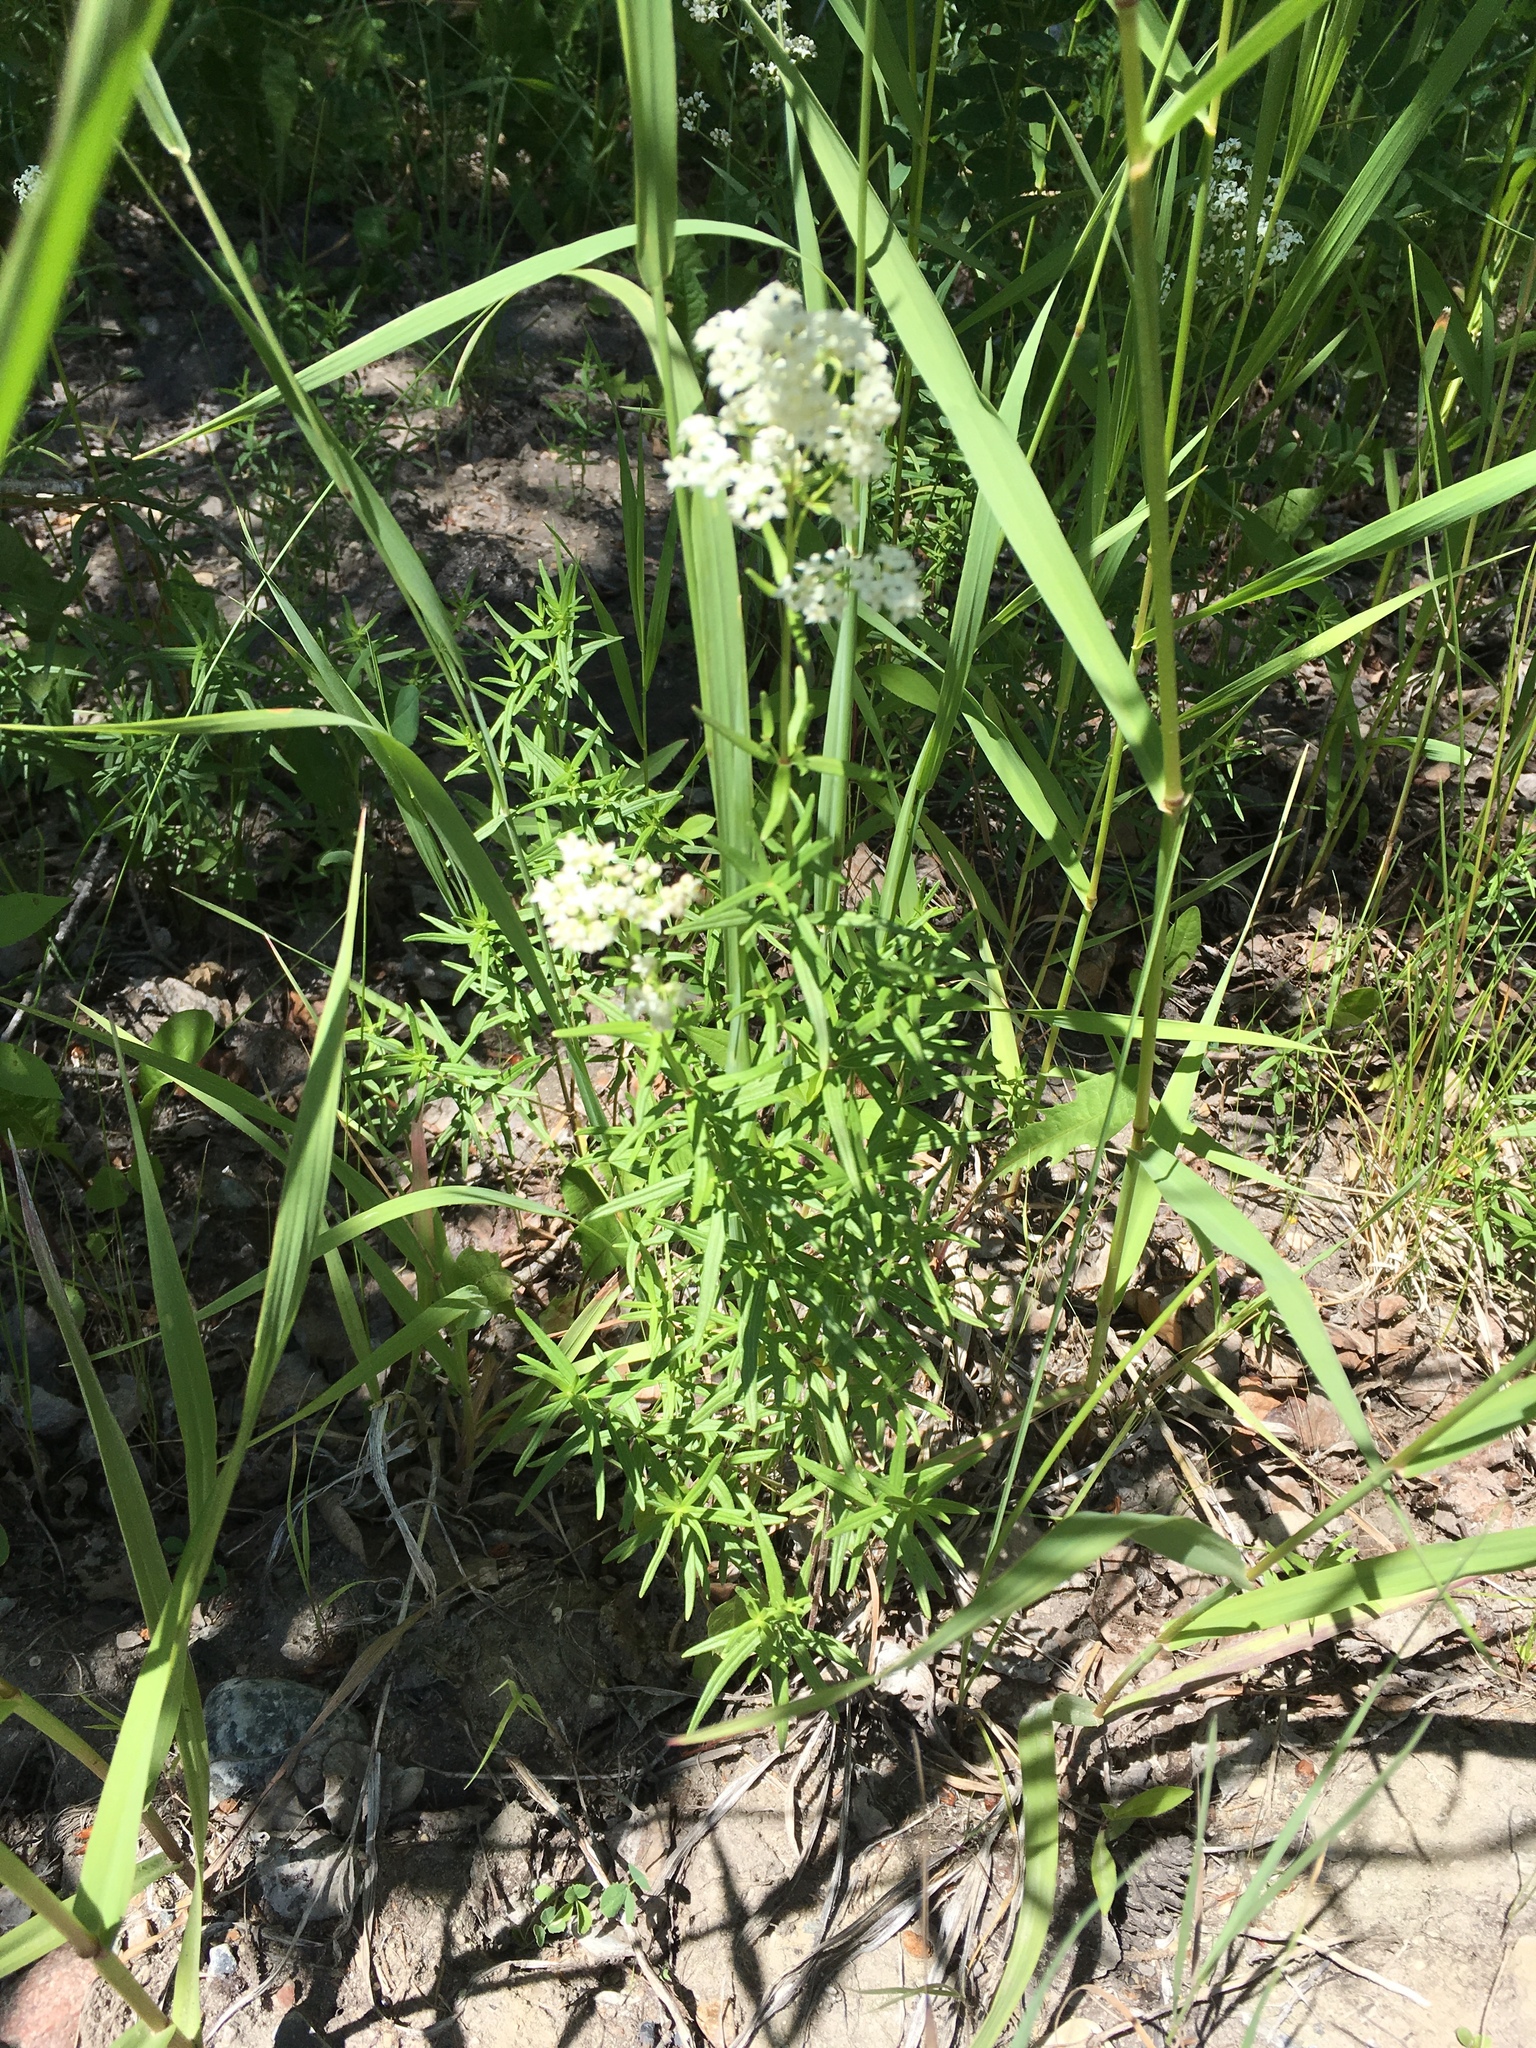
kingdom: Plantae
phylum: Tracheophyta
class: Magnoliopsida
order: Gentianales
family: Rubiaceae
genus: Galium
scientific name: Galium boreale
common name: Northern bedstraw
